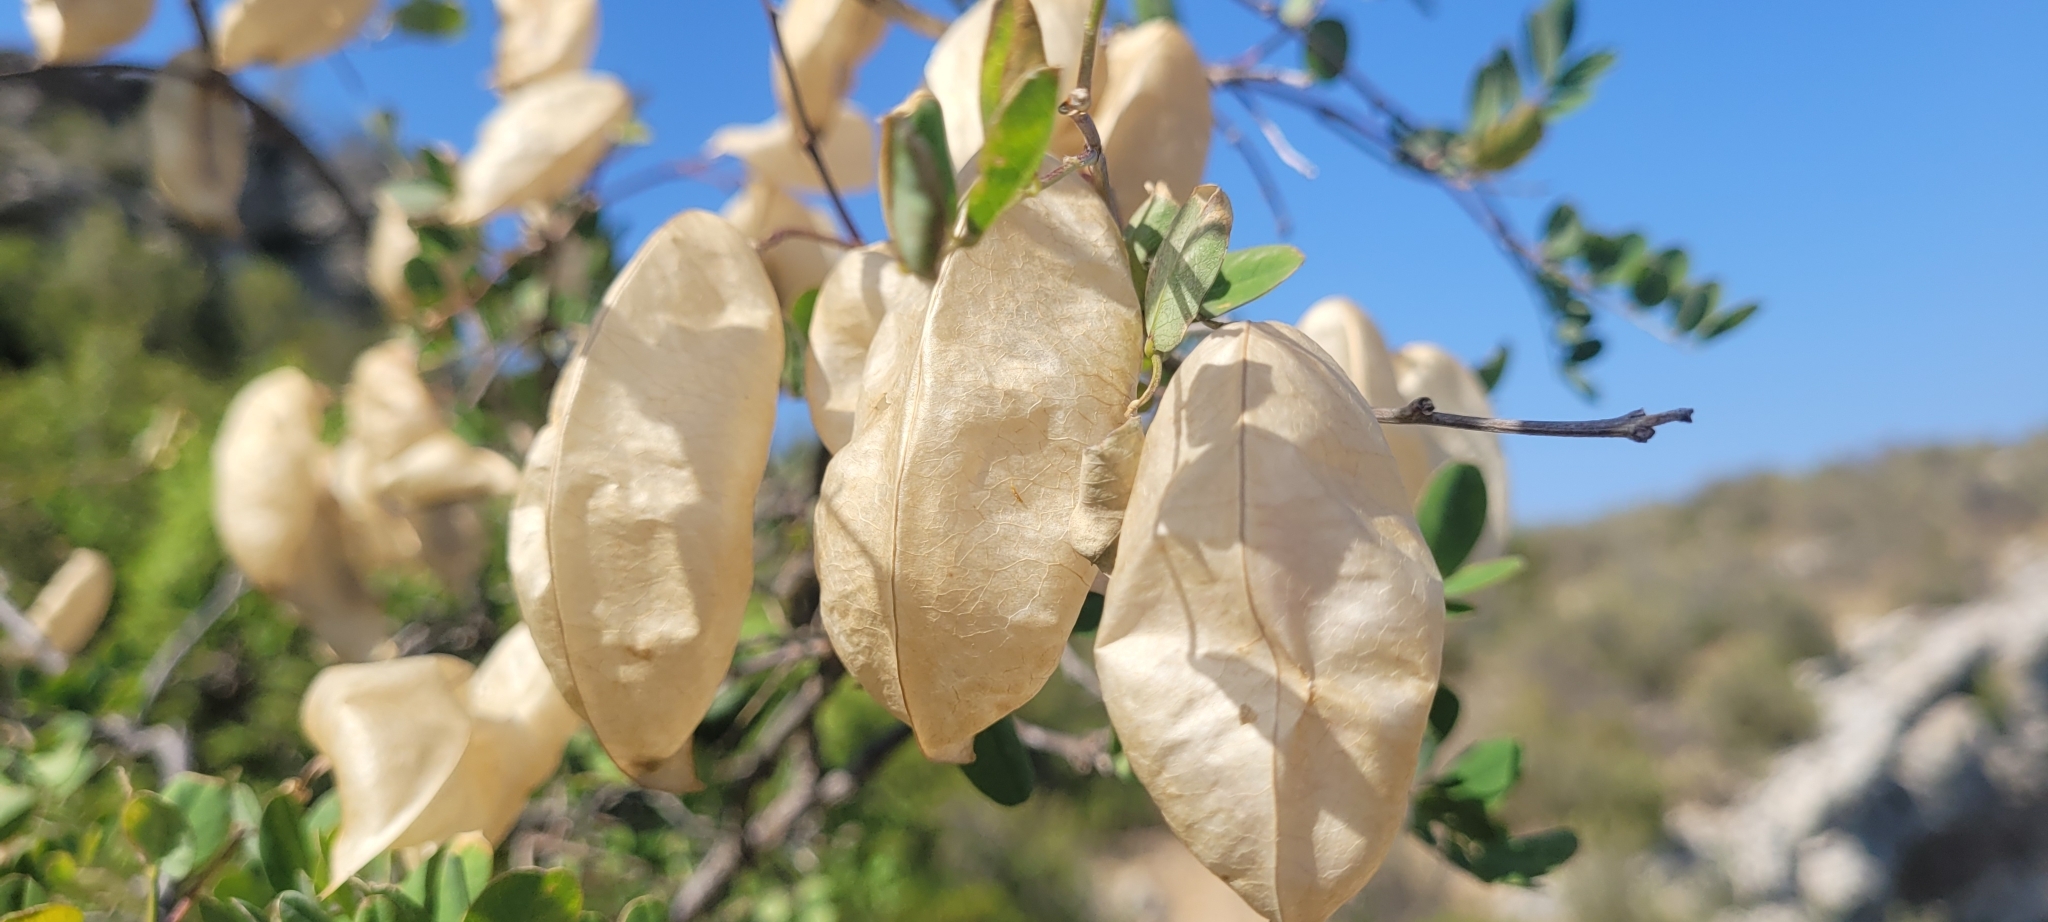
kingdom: Plantae
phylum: Tracheophyta
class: Magnoliopsida
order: Fabales
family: Fabaceae
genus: Colutea
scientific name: Colutea arborescens
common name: Bladder-senna
